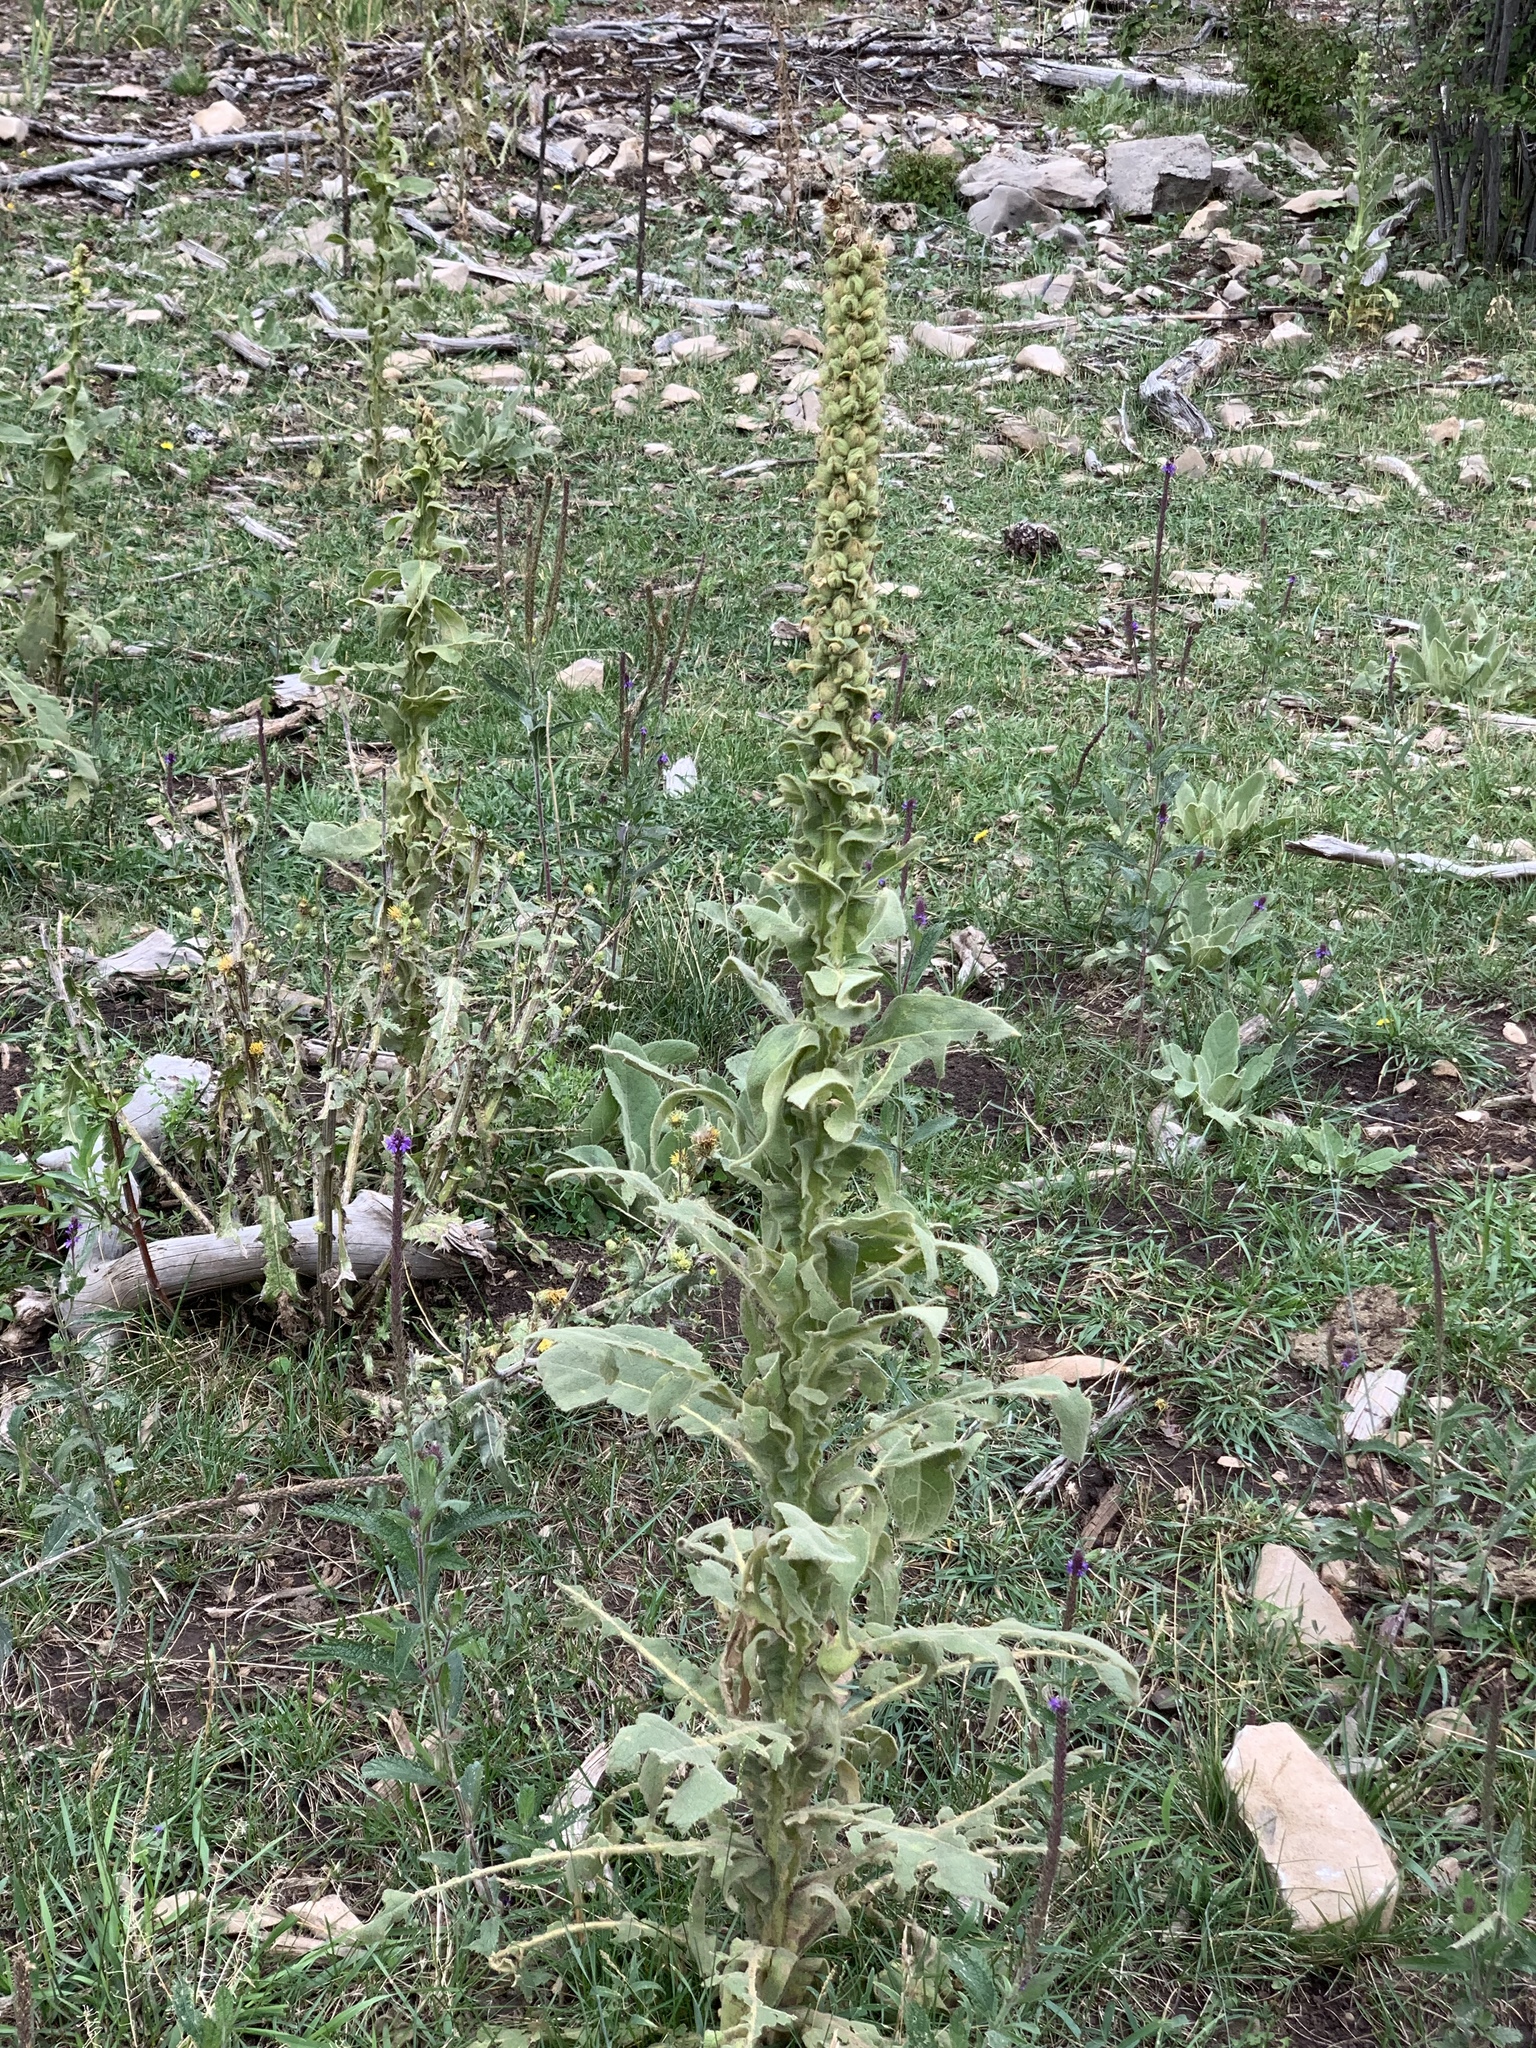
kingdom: Plantae
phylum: Tracheophyta
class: Magnoliopsida
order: Lamiales
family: Scrophulariaceae
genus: Verbascum
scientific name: Verbascum thapsus
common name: Common mullein
